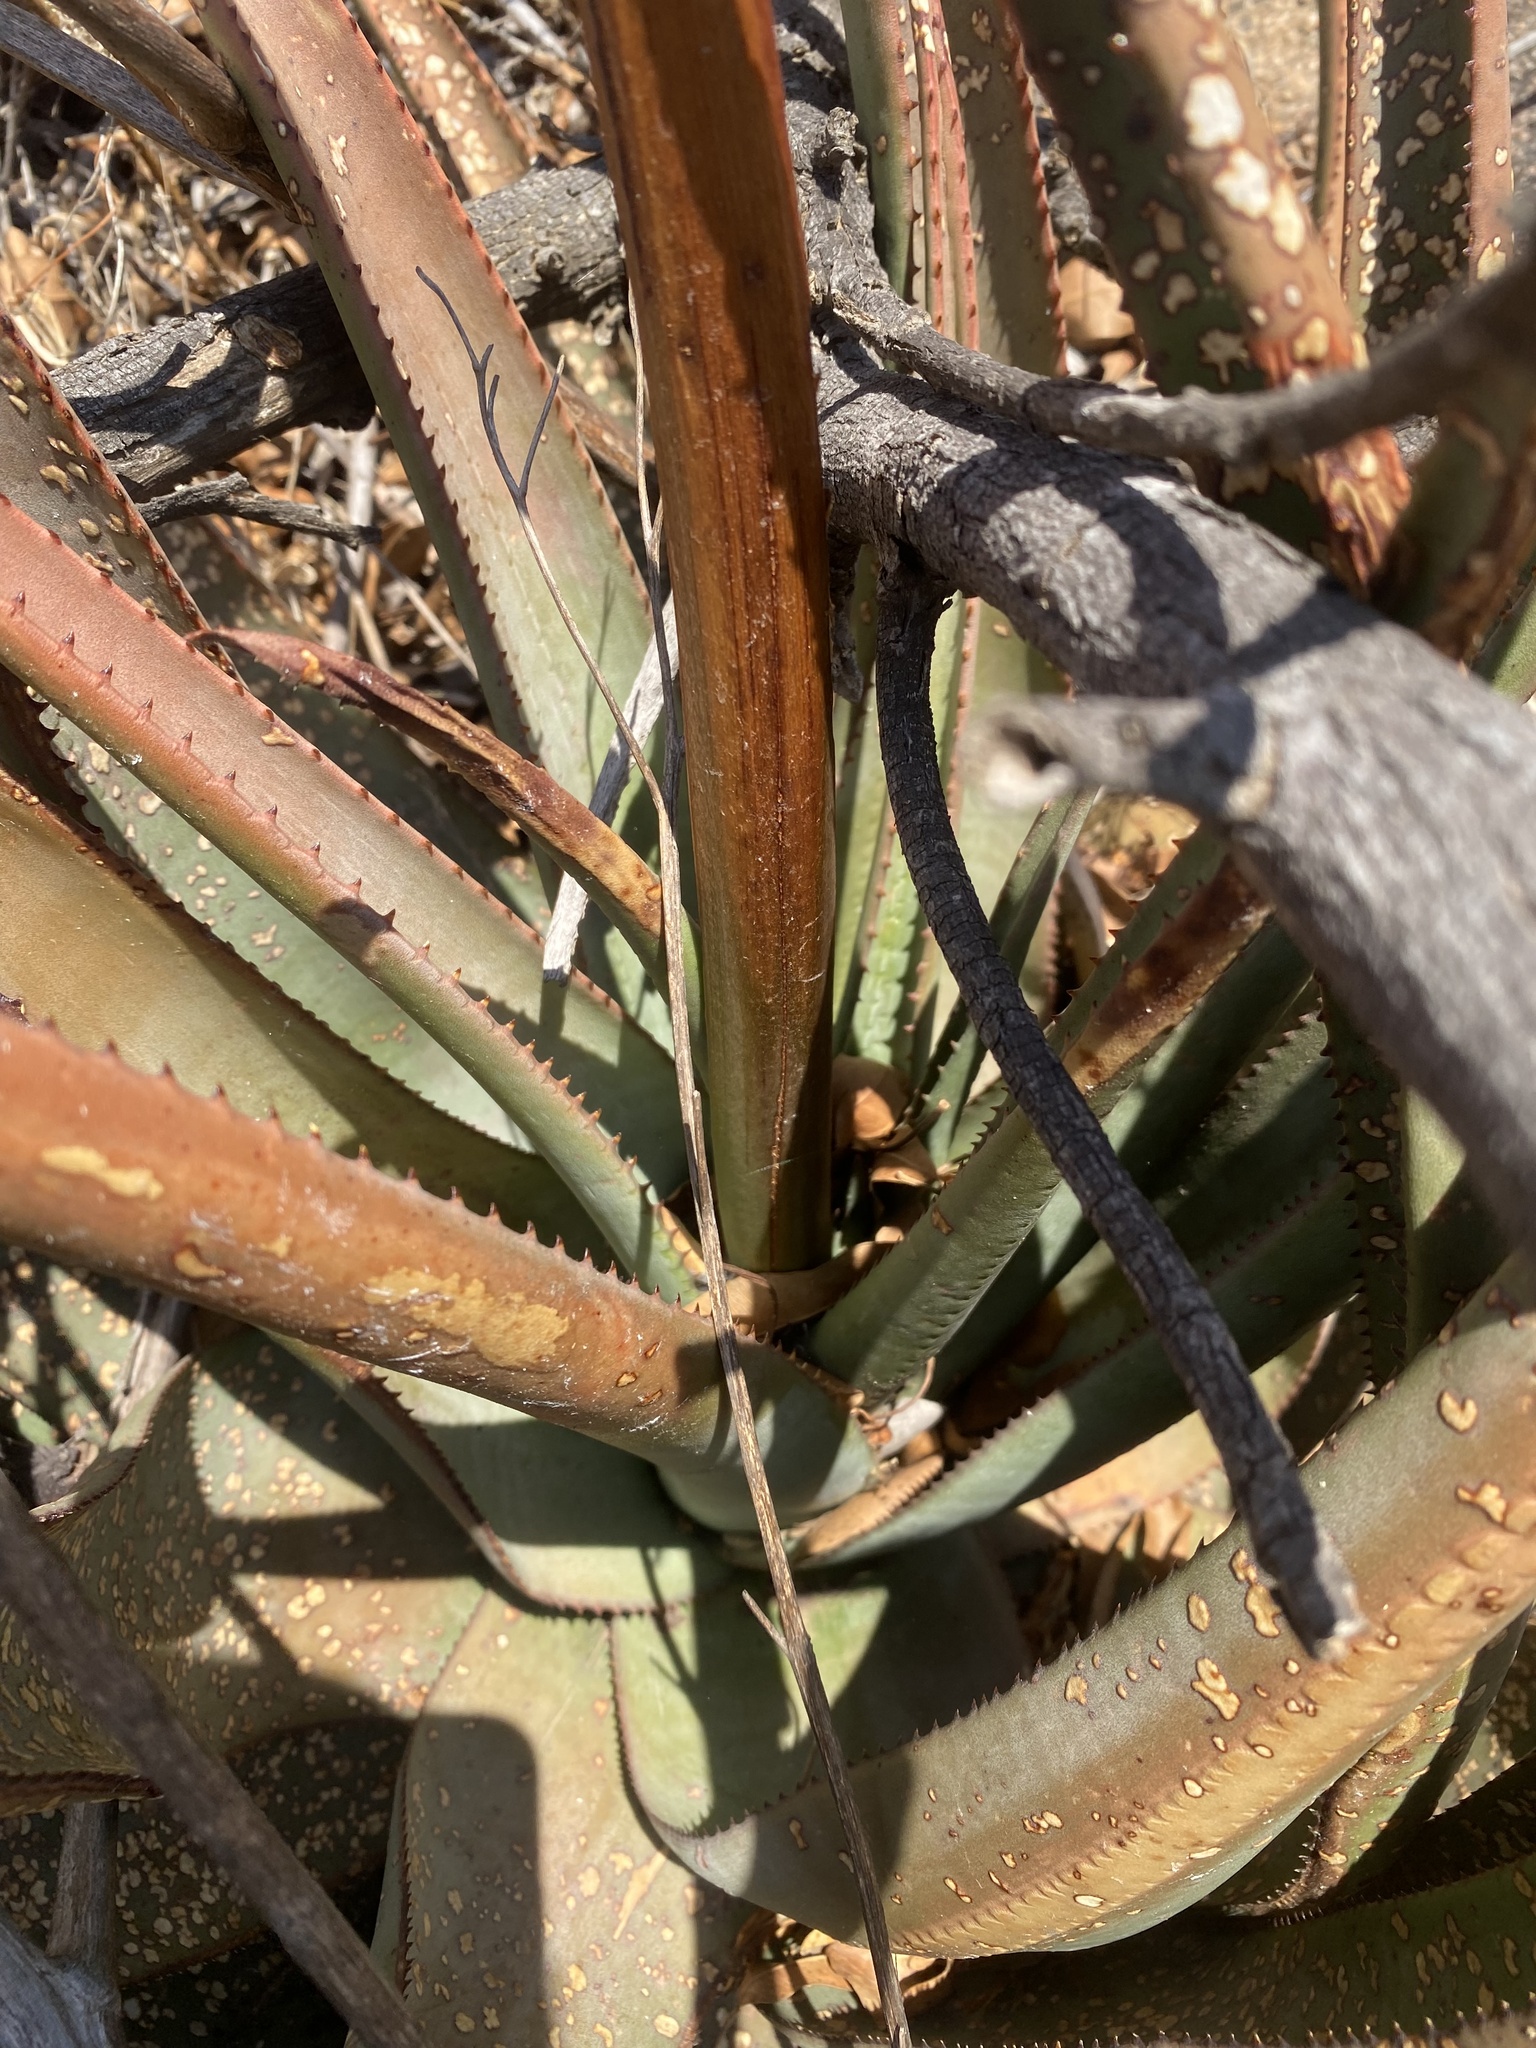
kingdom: Plantae
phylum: Tracheophyta
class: Liliopsida
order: Asparagales
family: Asphodelaceae
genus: Aloe
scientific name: Aloe pienaarii
